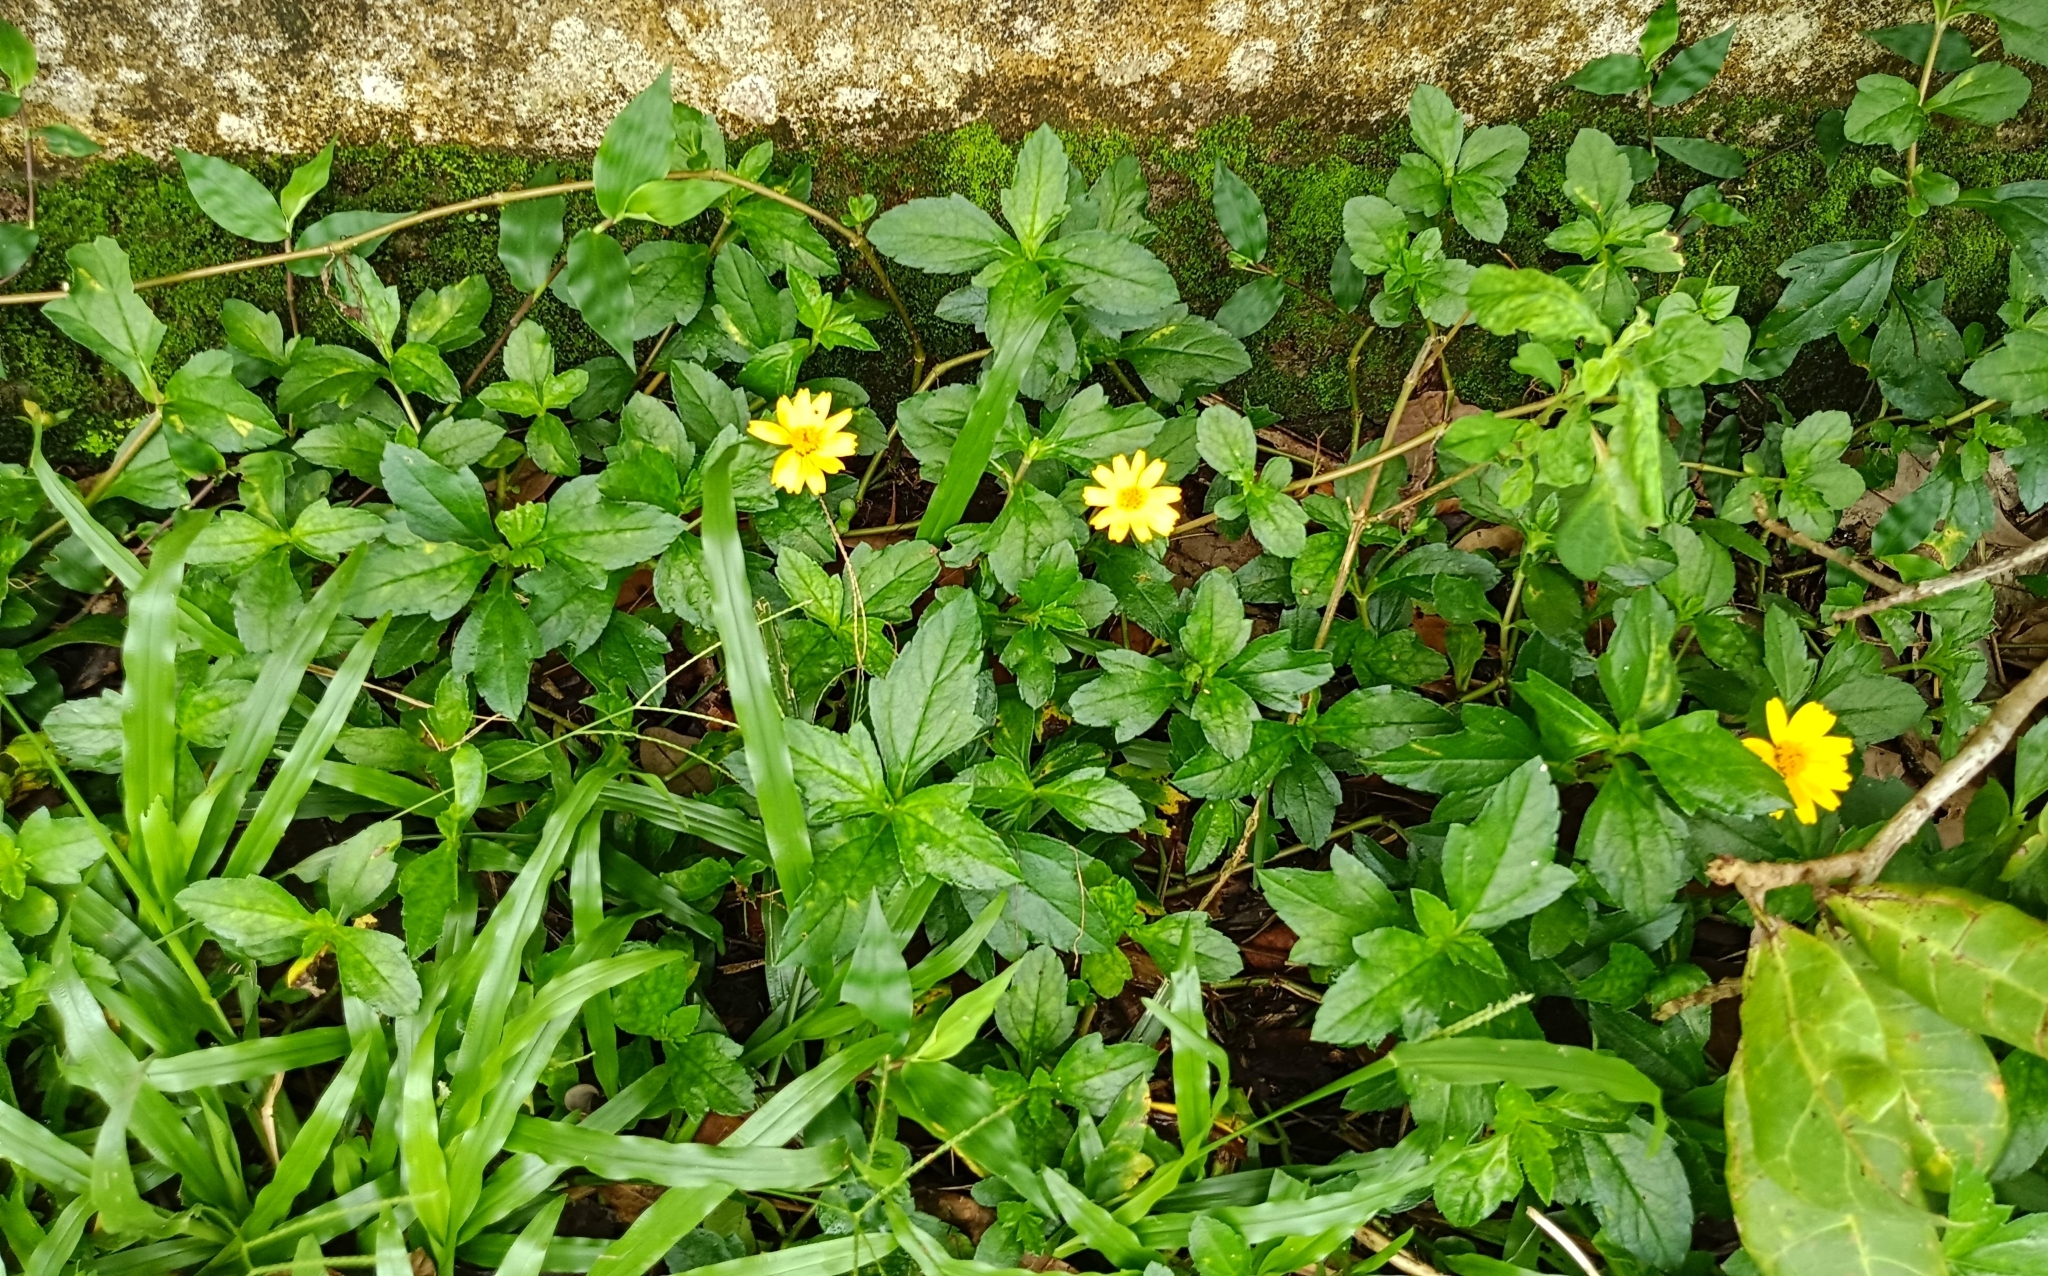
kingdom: Plantae
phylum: Tracheophyta
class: Magnoliopsida
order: Asterales
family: Asteraceae
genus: Sphagneticola
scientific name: Sphagneticola trilobata
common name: Bay biscayne creeping-oxeye
